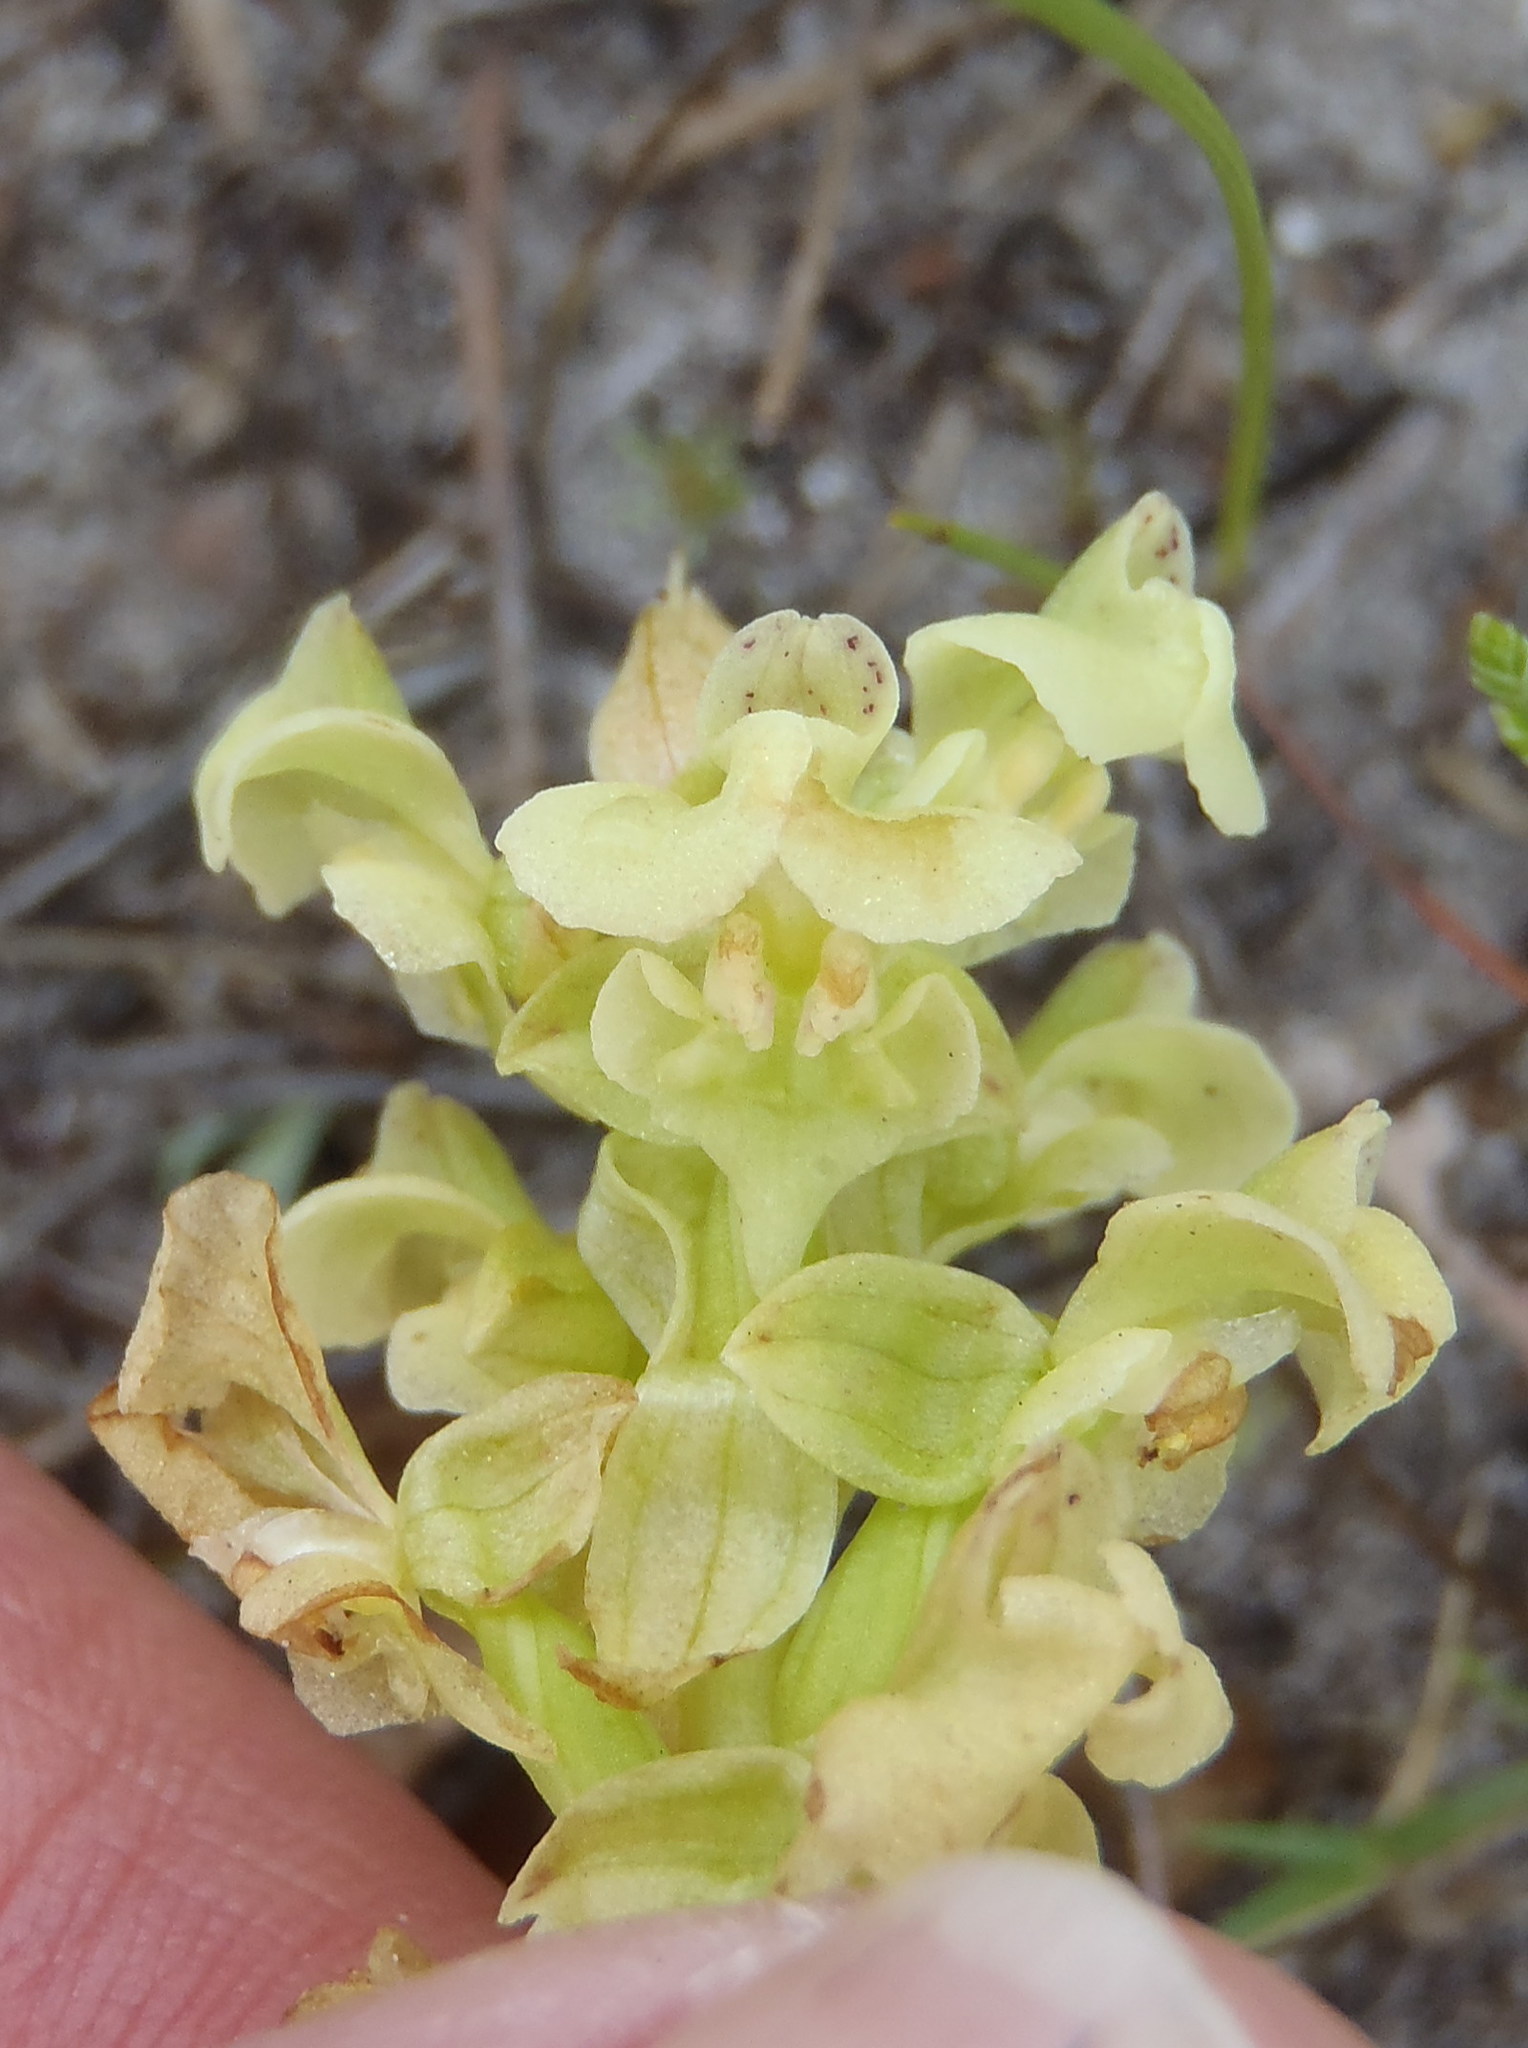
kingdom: Plantae
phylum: Tracheophyta
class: Liliopsida
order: Asparagales
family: Orchidaceae
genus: Pterygodium
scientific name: Pterygodium volucris
